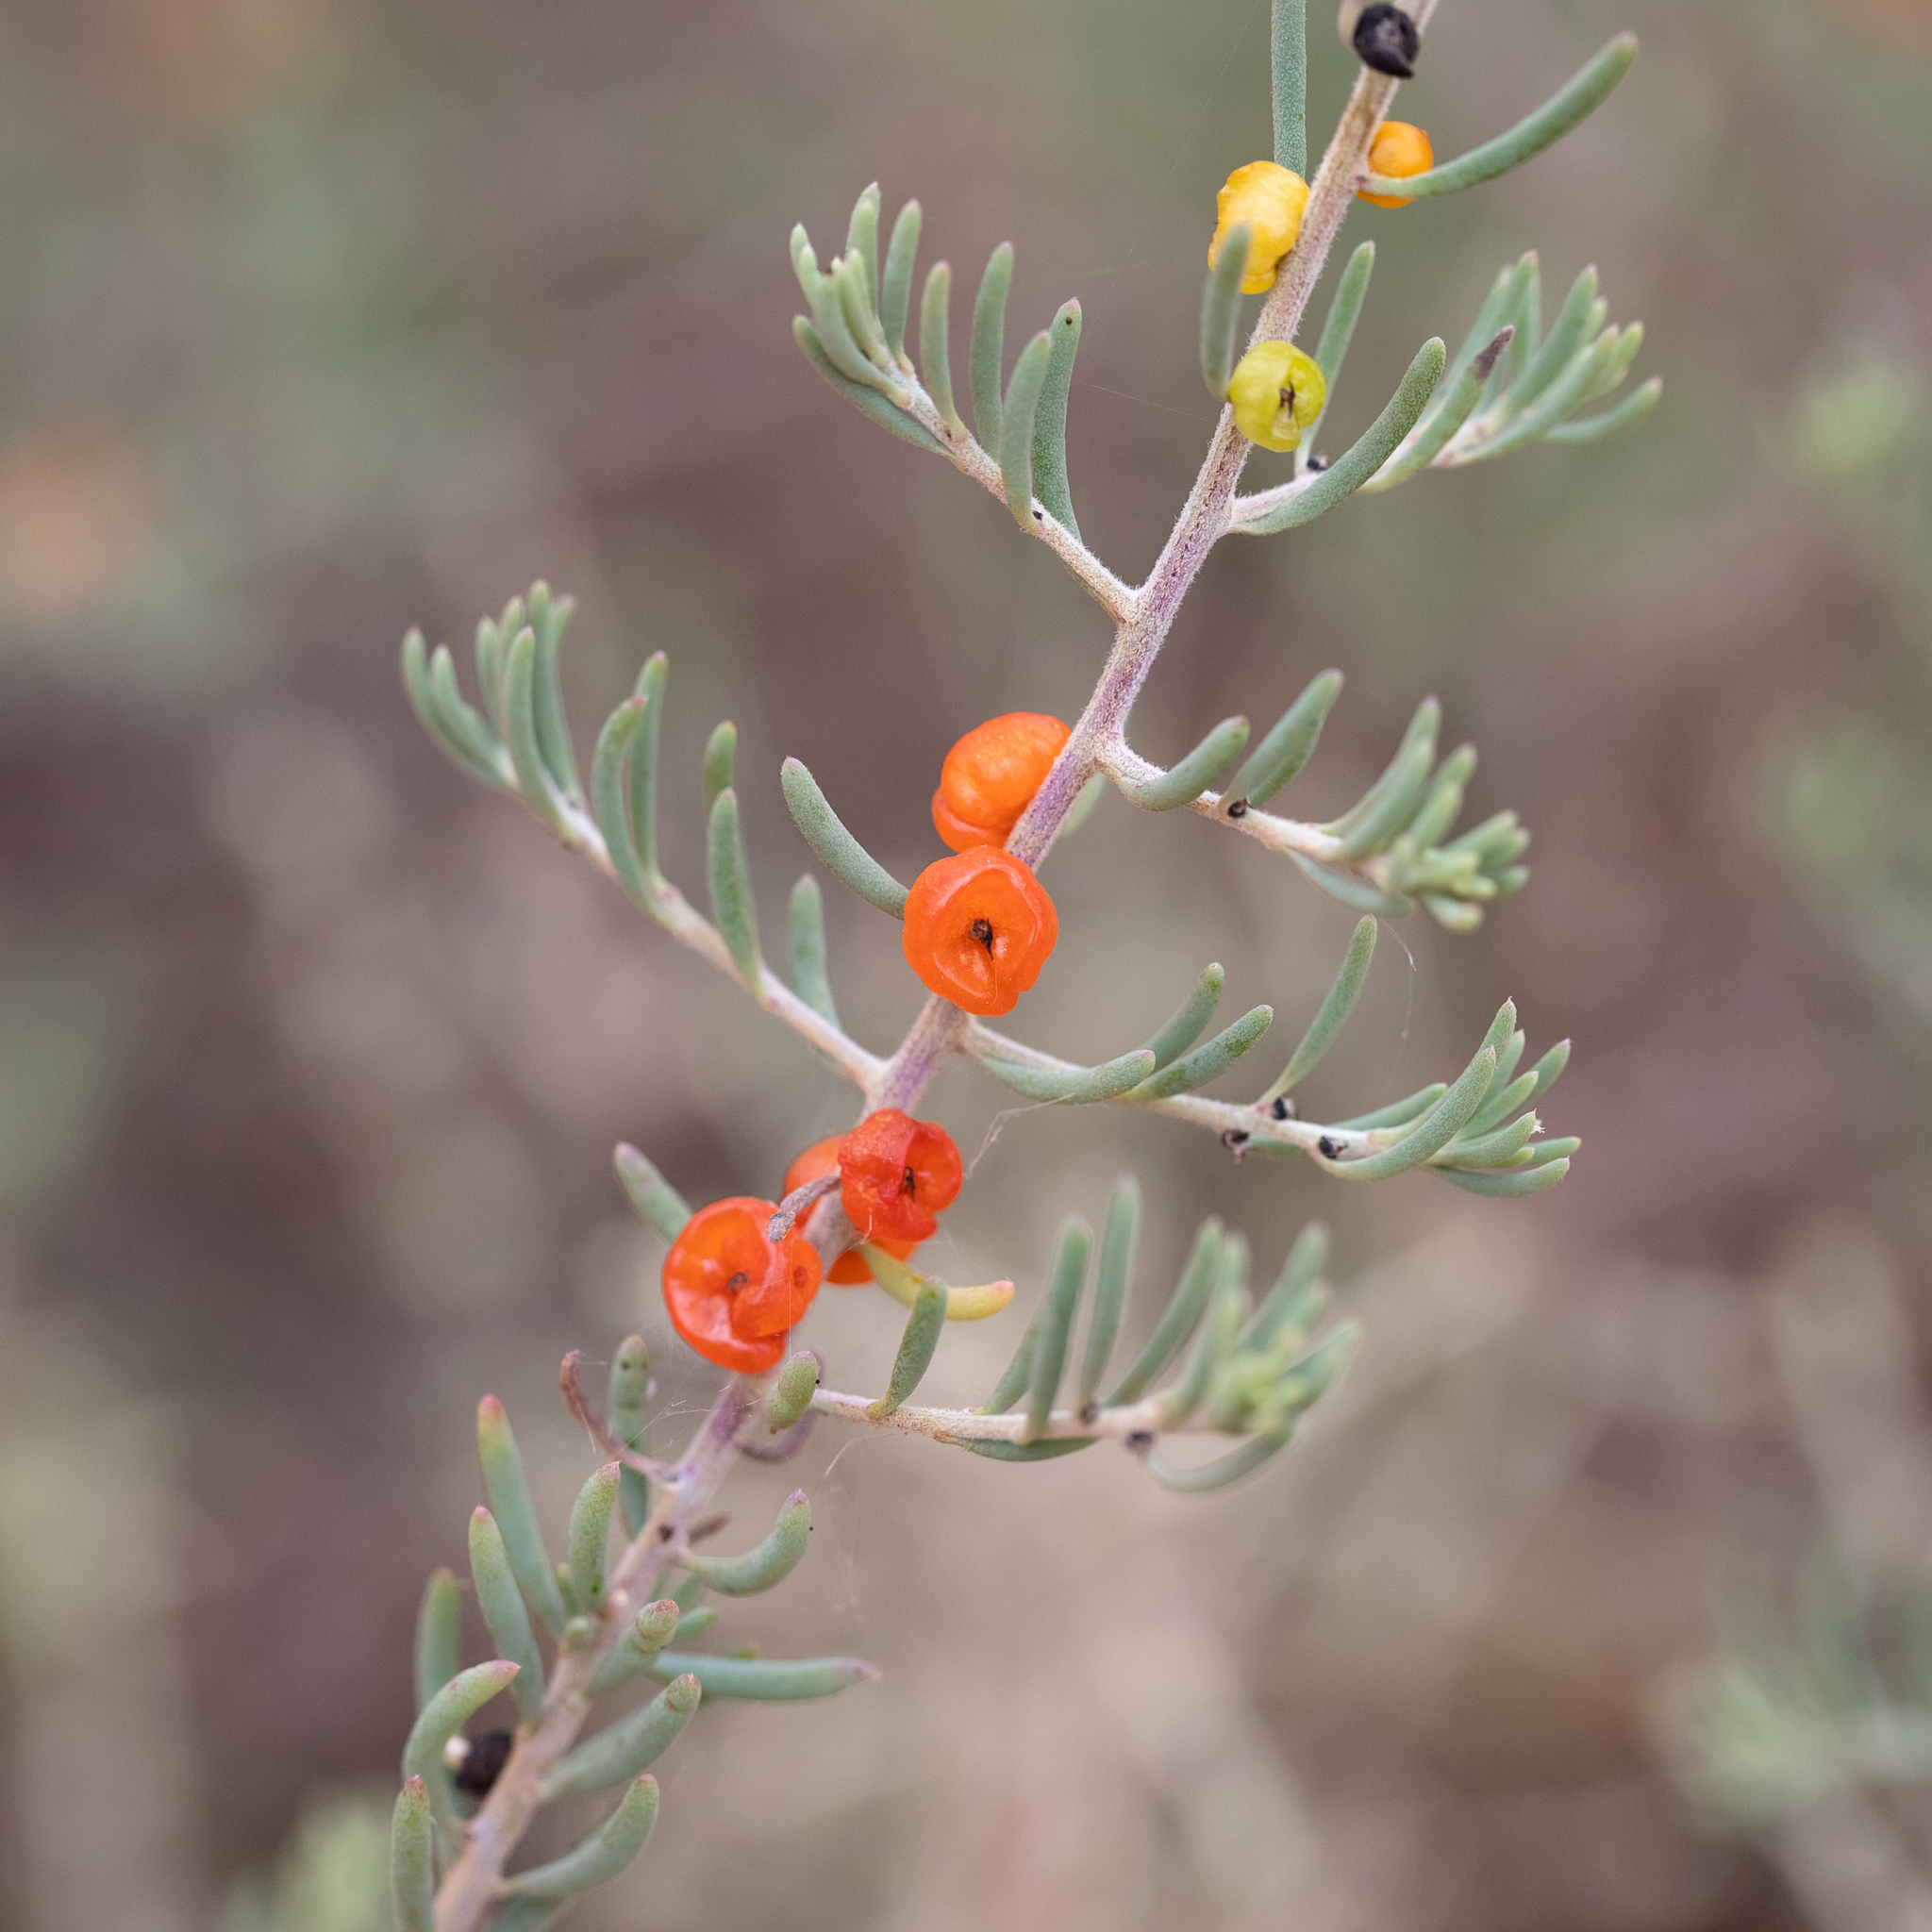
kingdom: Plantae
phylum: Tracheophyta
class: Magnoliopsida
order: Caryophyllales
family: Amaranthaceae
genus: Enchylaena
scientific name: Enchylaena tomentosa
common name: Ruby saltbush
